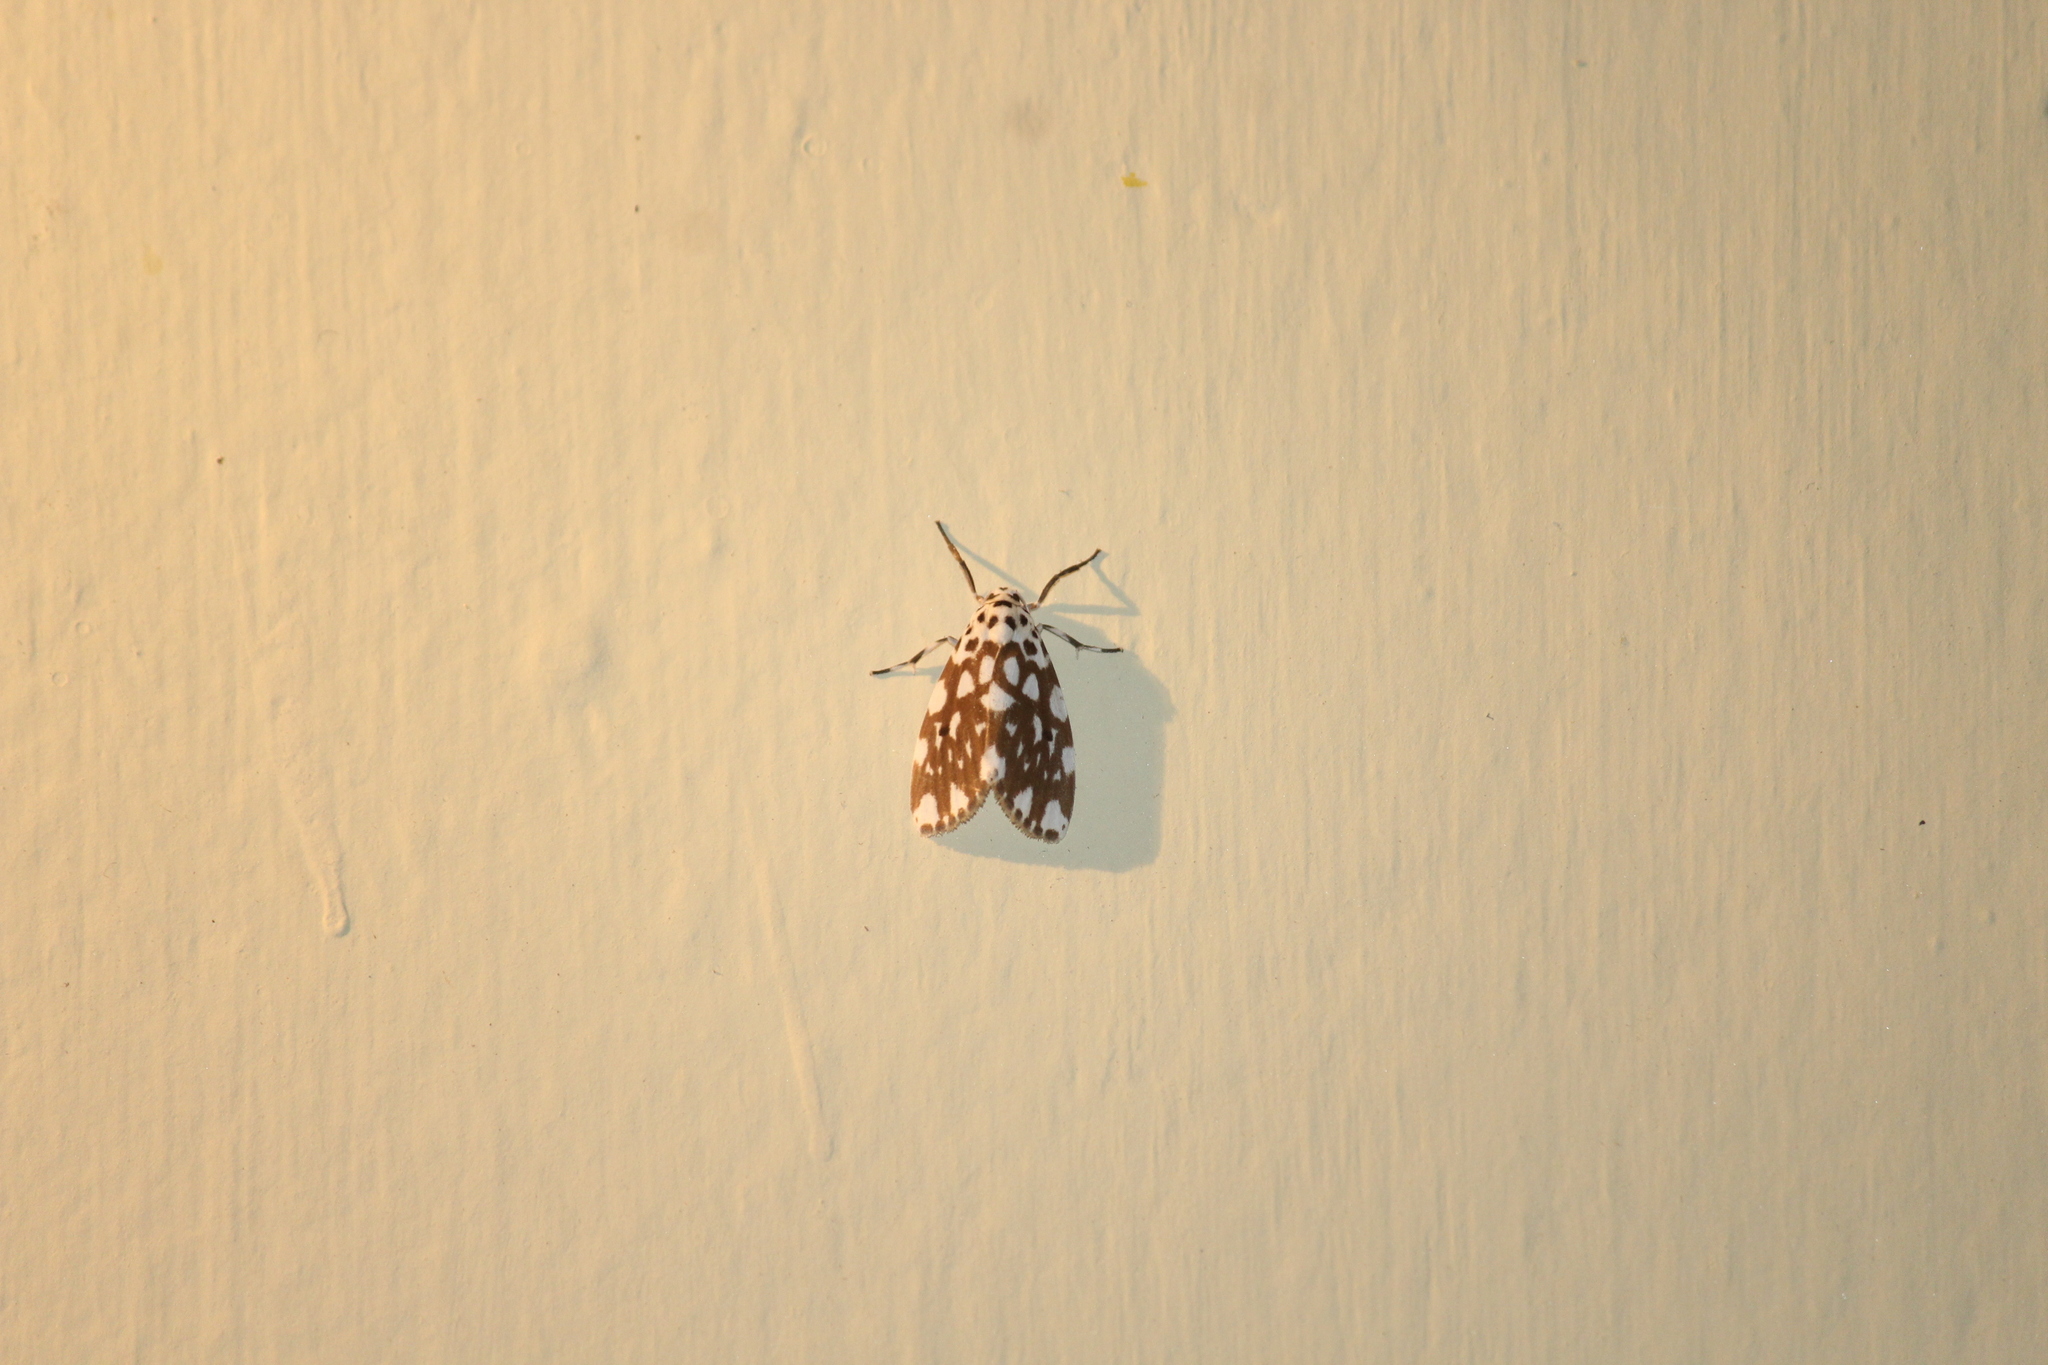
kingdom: Animalia
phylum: Arthropoda
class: Insecta
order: Lepidoptera
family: Erebidae
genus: Adites
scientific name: Adites pseudohilaris
